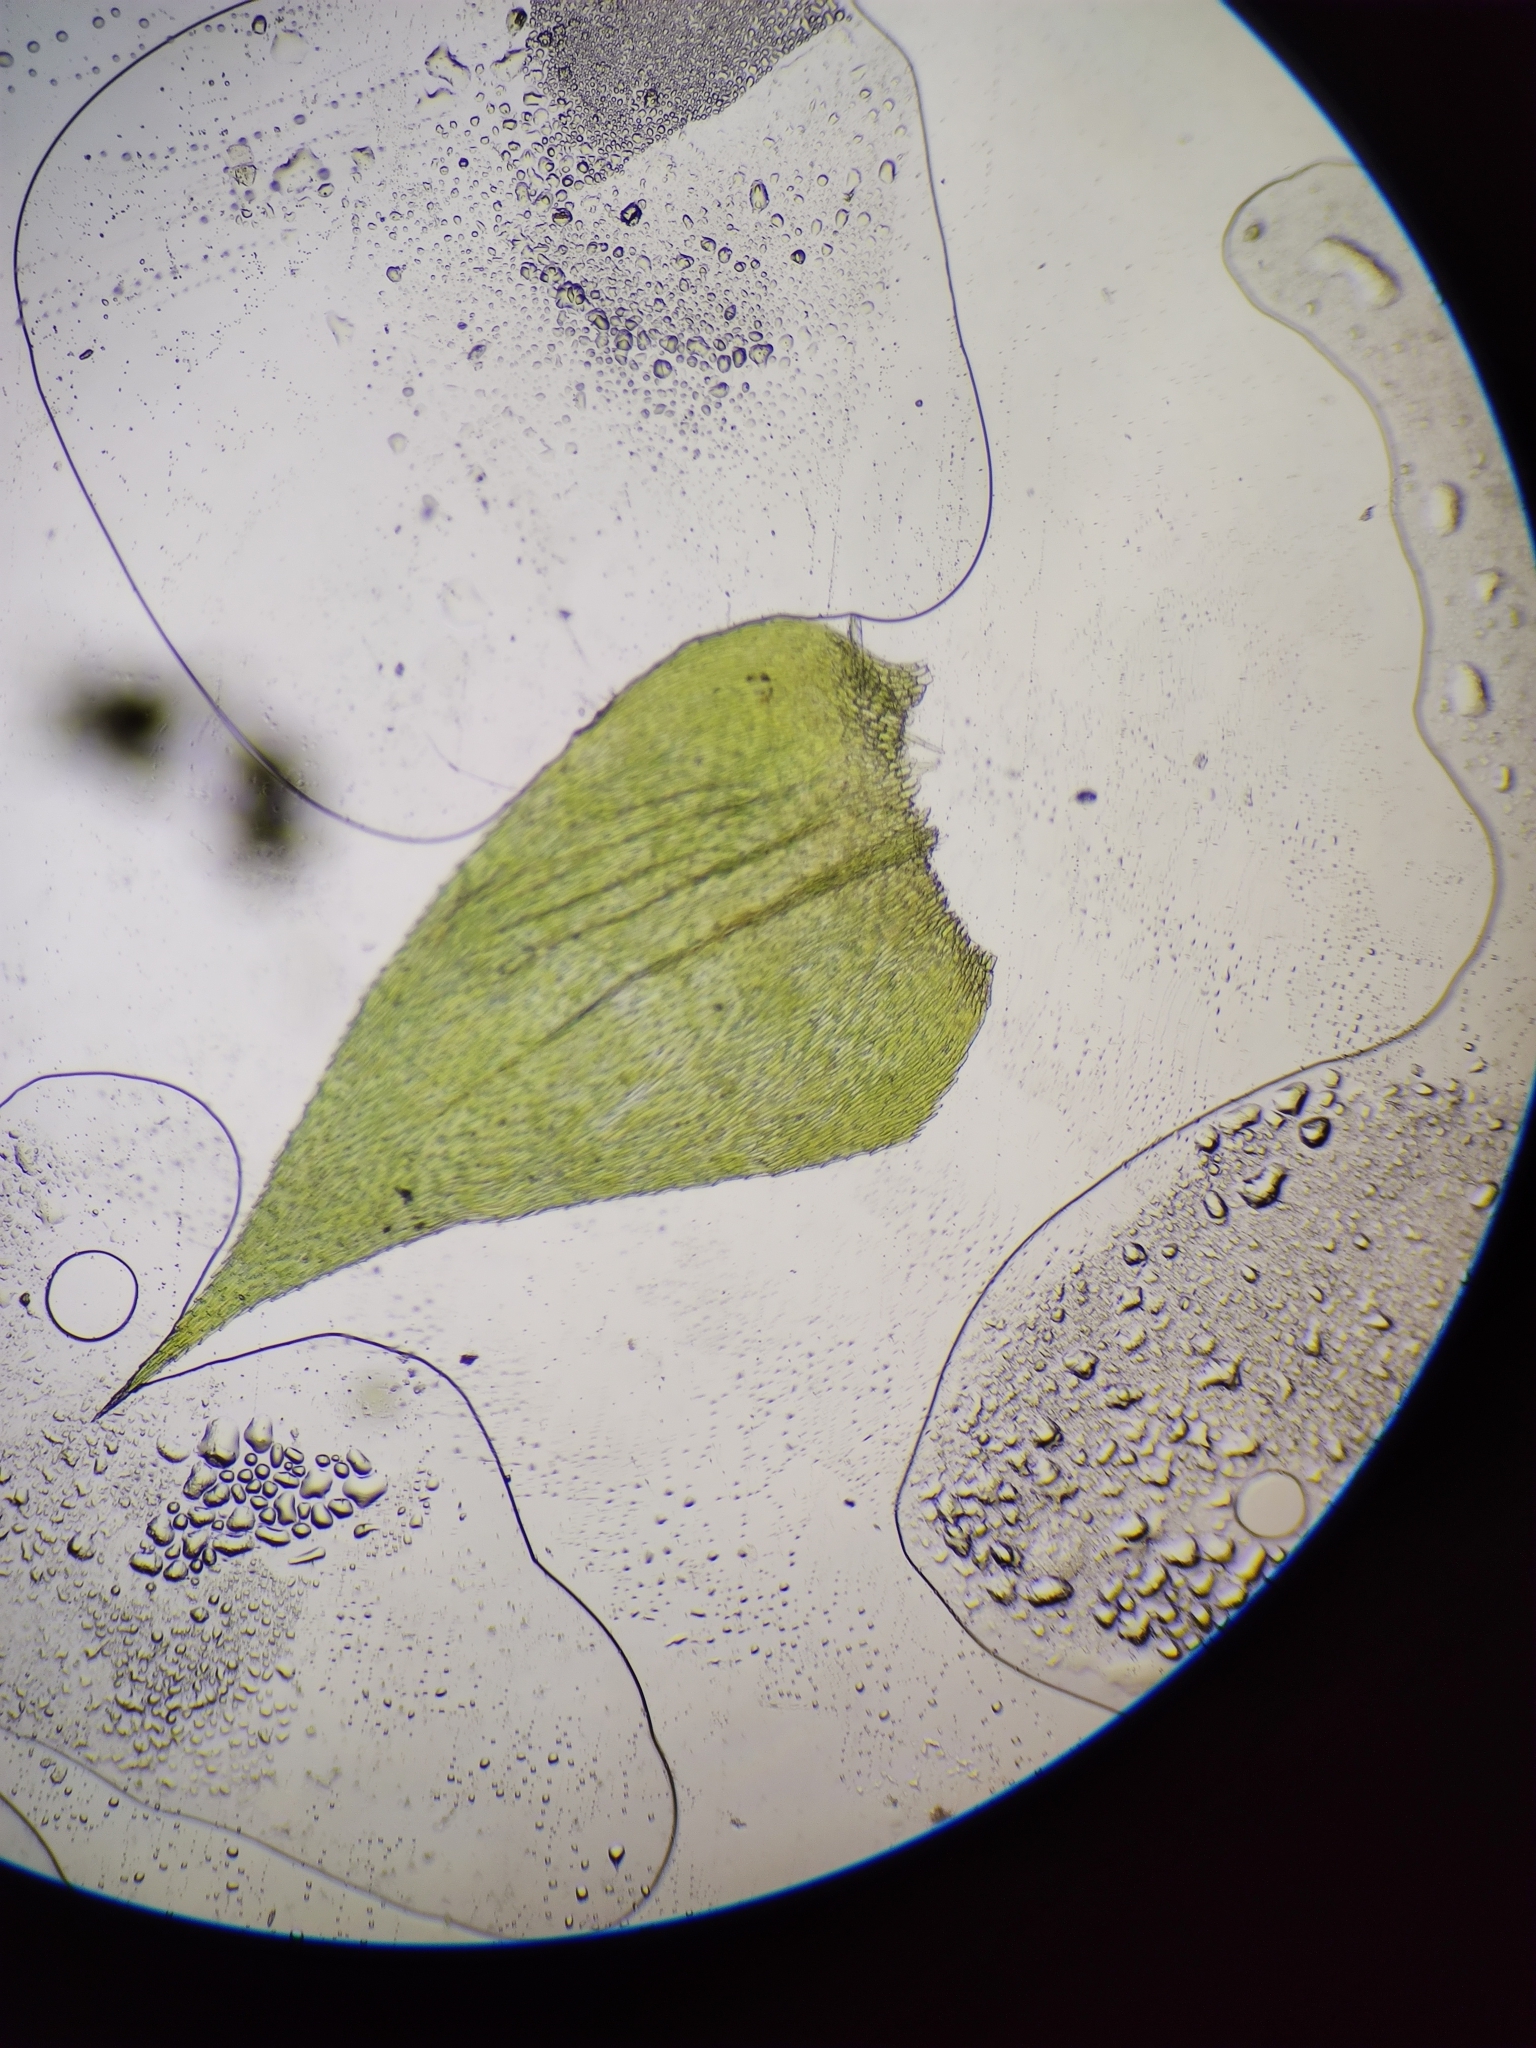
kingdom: Plantae
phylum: Bryophyta
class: Bryopsida
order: Hypnales
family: Brachytheciaceae
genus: Brachythecium
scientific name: Brachythecium rutabulum
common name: Rough-stalked feather-moss
